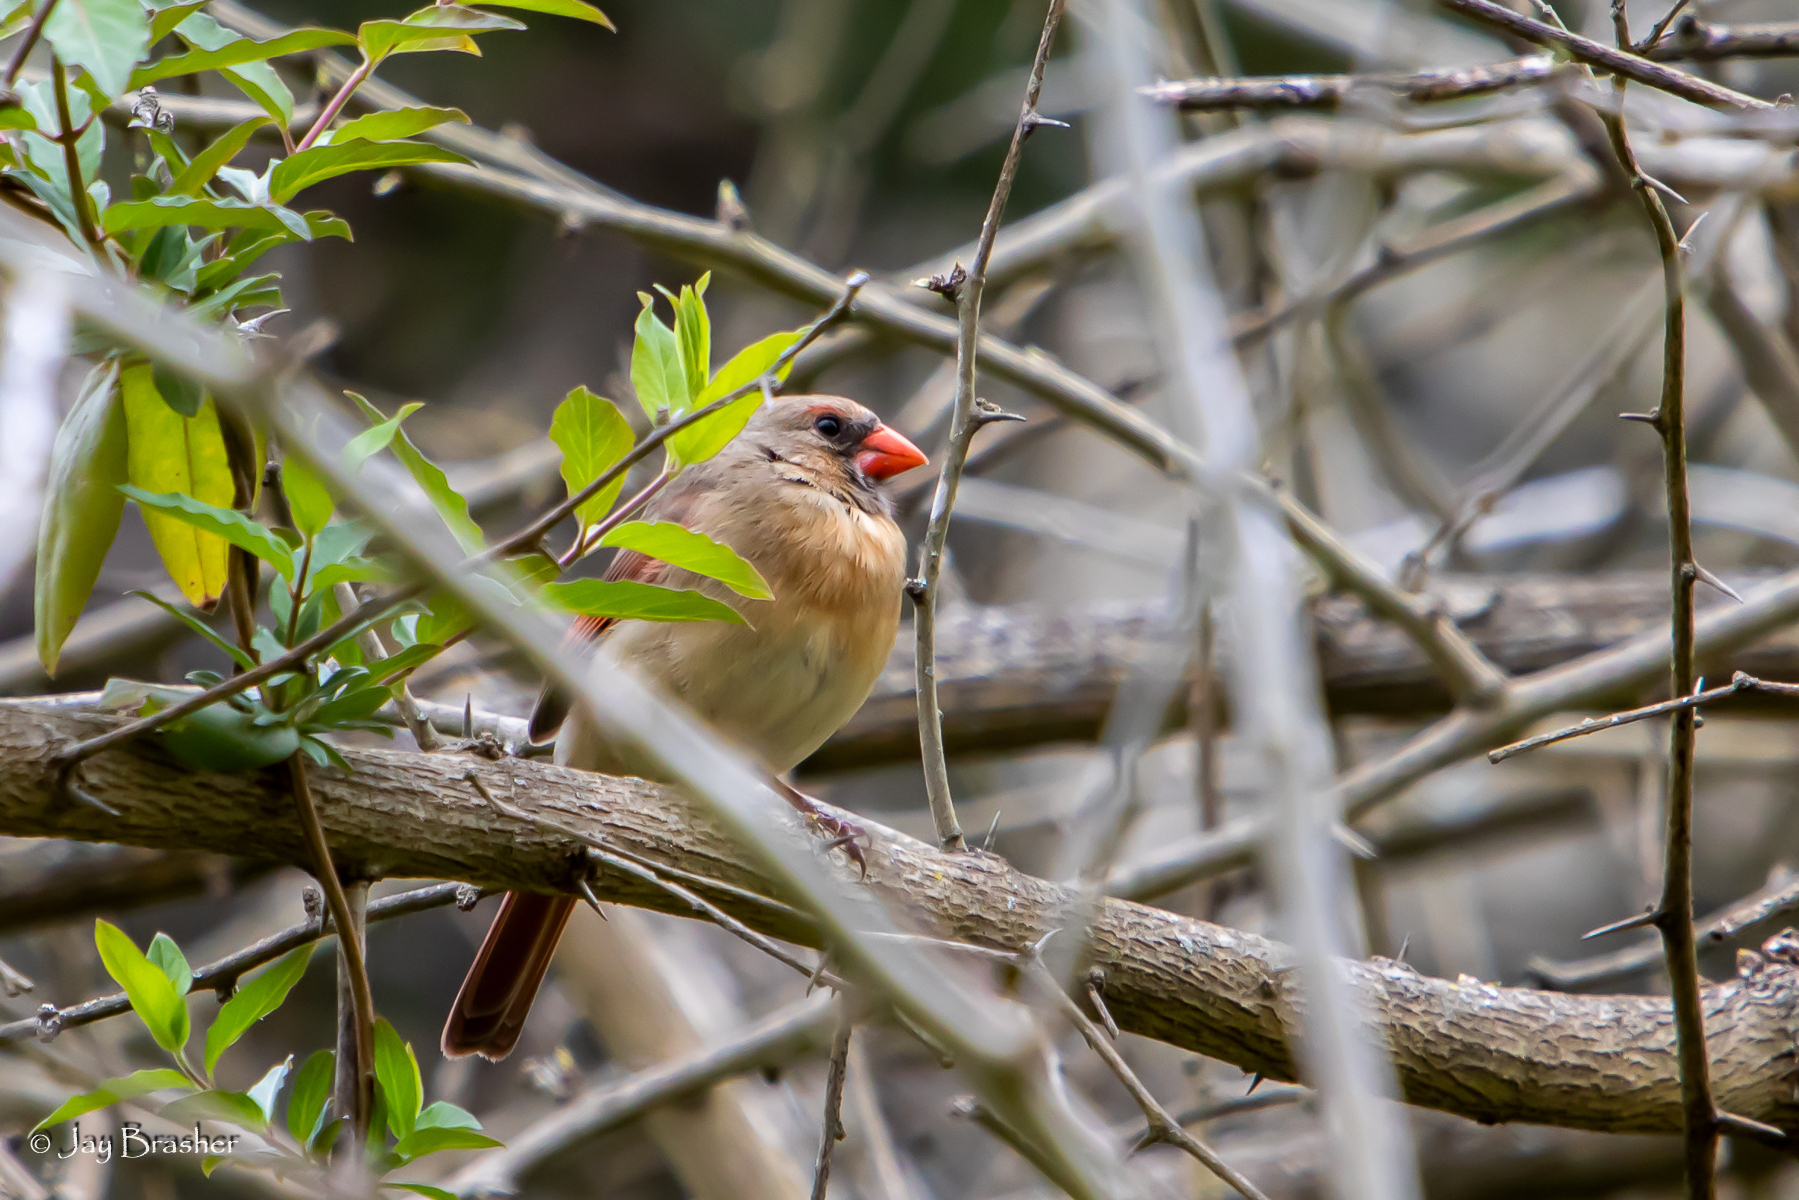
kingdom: Animalia
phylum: Chordata
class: Aves
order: Passeriformes
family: Cardinalidae
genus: Cardinalis
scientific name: Cardinalis cardinalis
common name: Northern cardinal
